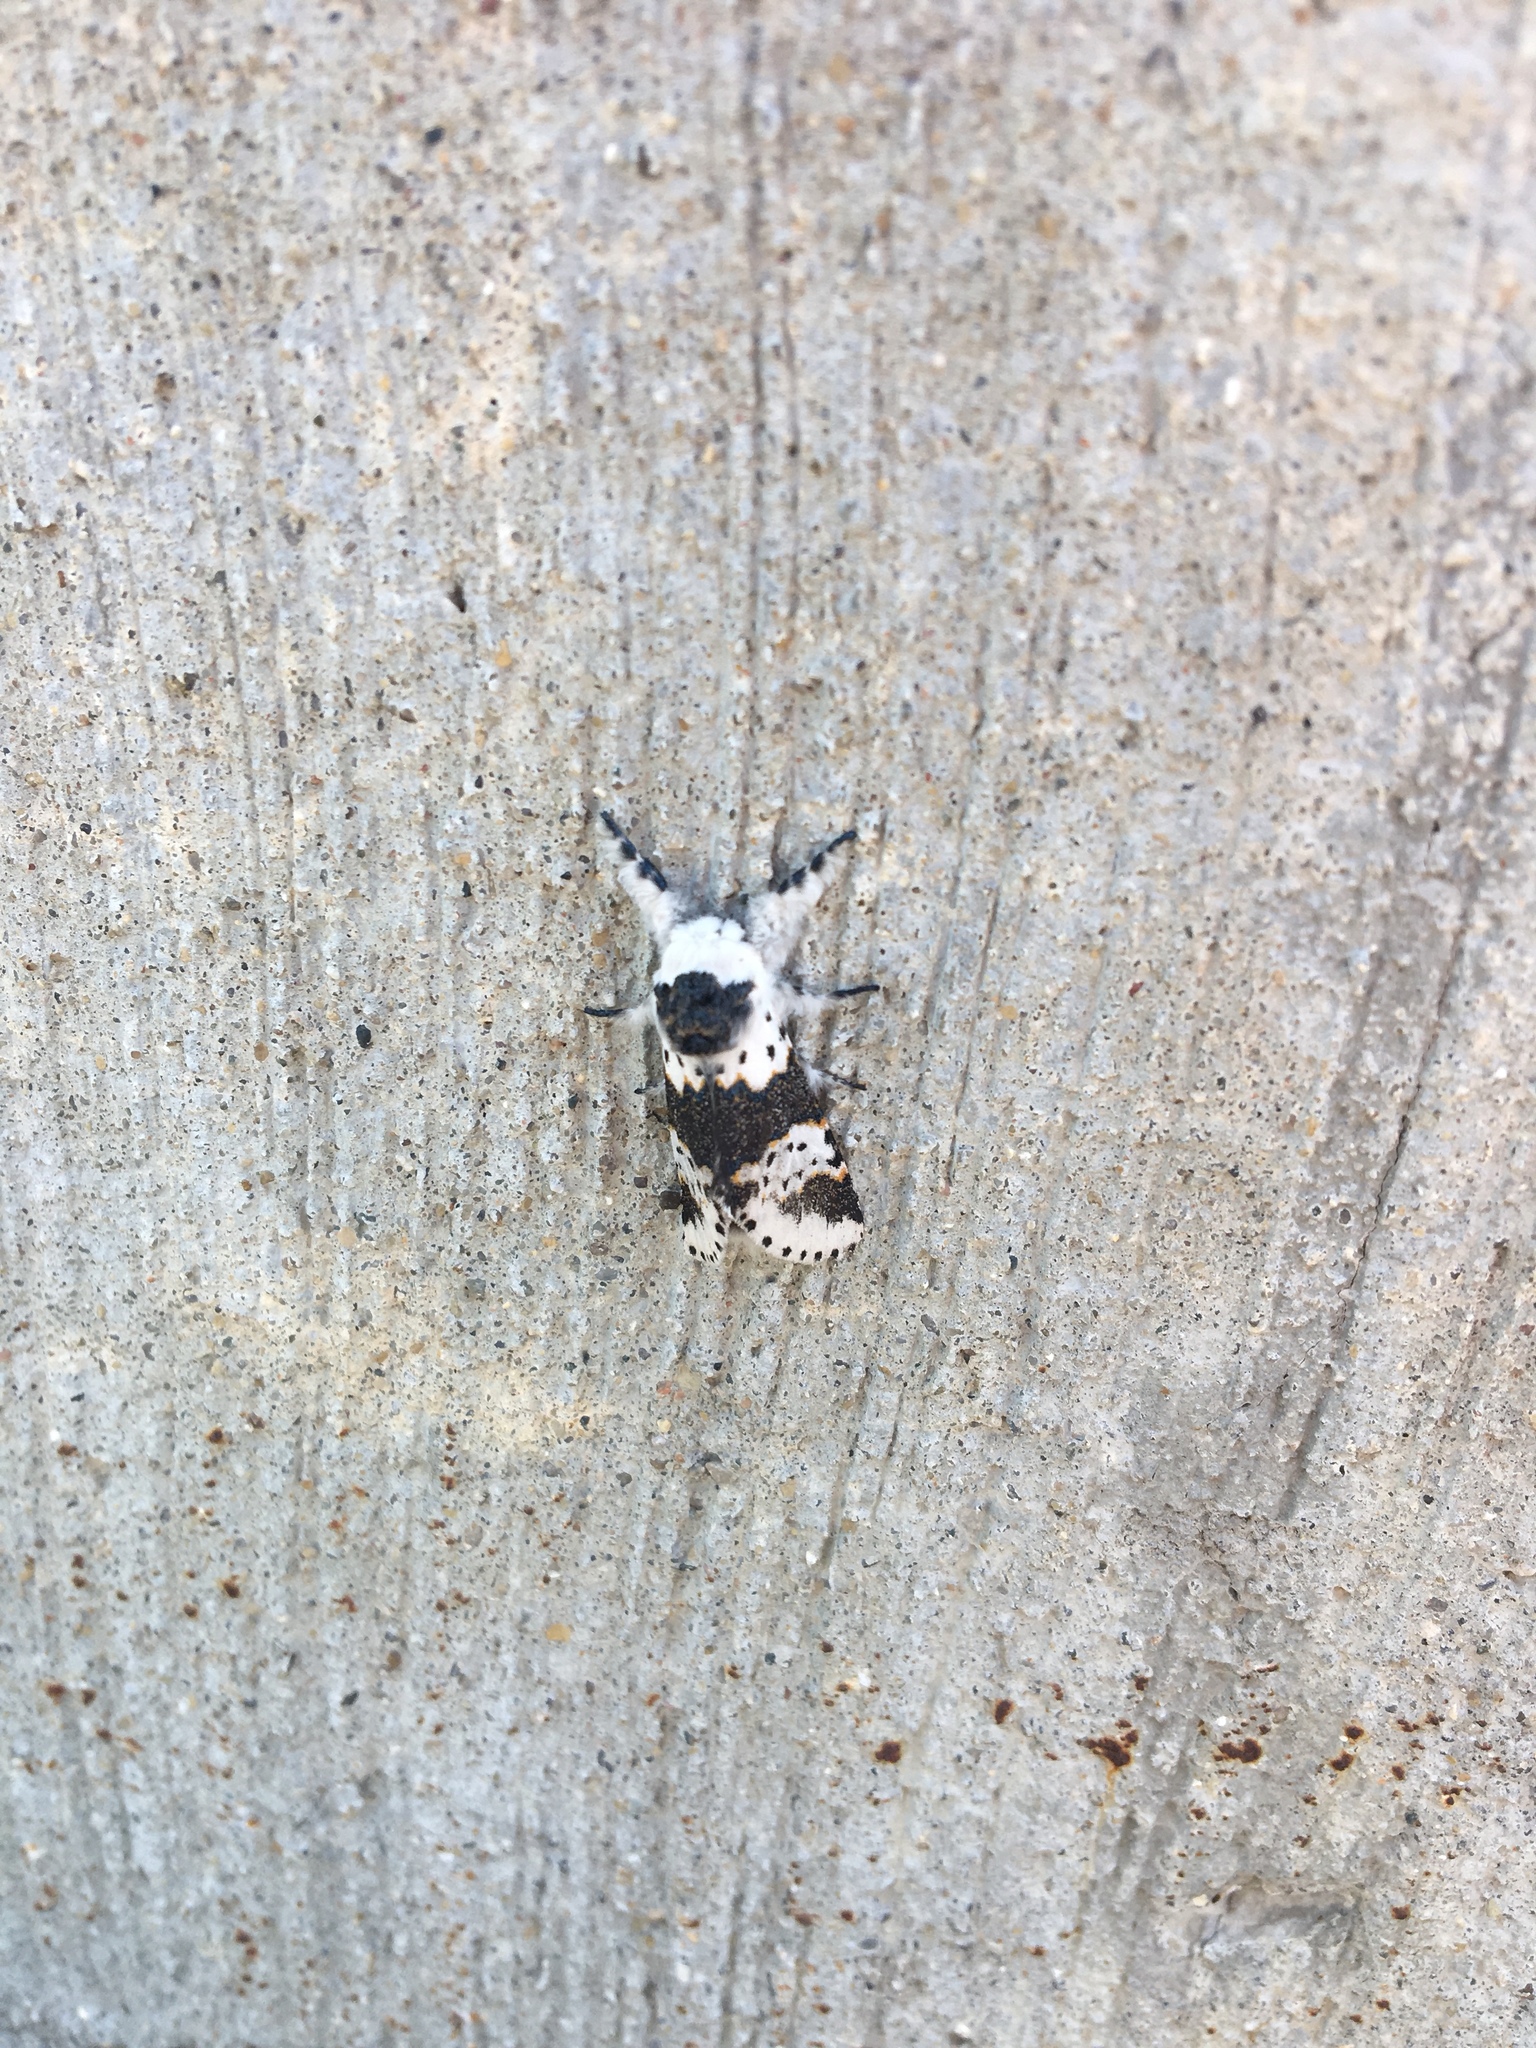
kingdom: Animalia
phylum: Arthropoda
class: Insecta
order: Lepidoptera
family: Notodontidae
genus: Furcula
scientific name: Furcula borealis
